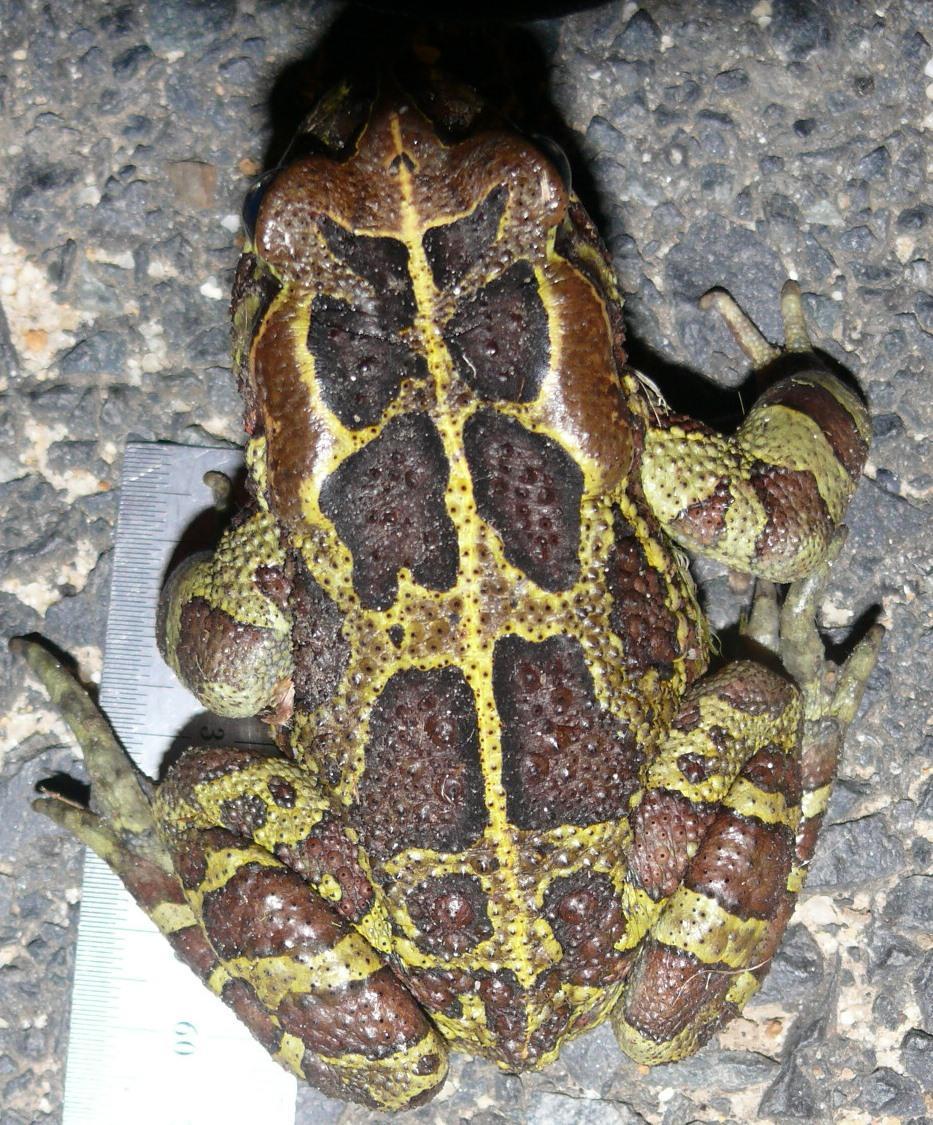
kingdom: Animalia
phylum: Chordata
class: Amphibia
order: Anura
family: Bufonidae
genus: Sclerophrys
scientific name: Sclerophrys pantherina
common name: Panther toad
